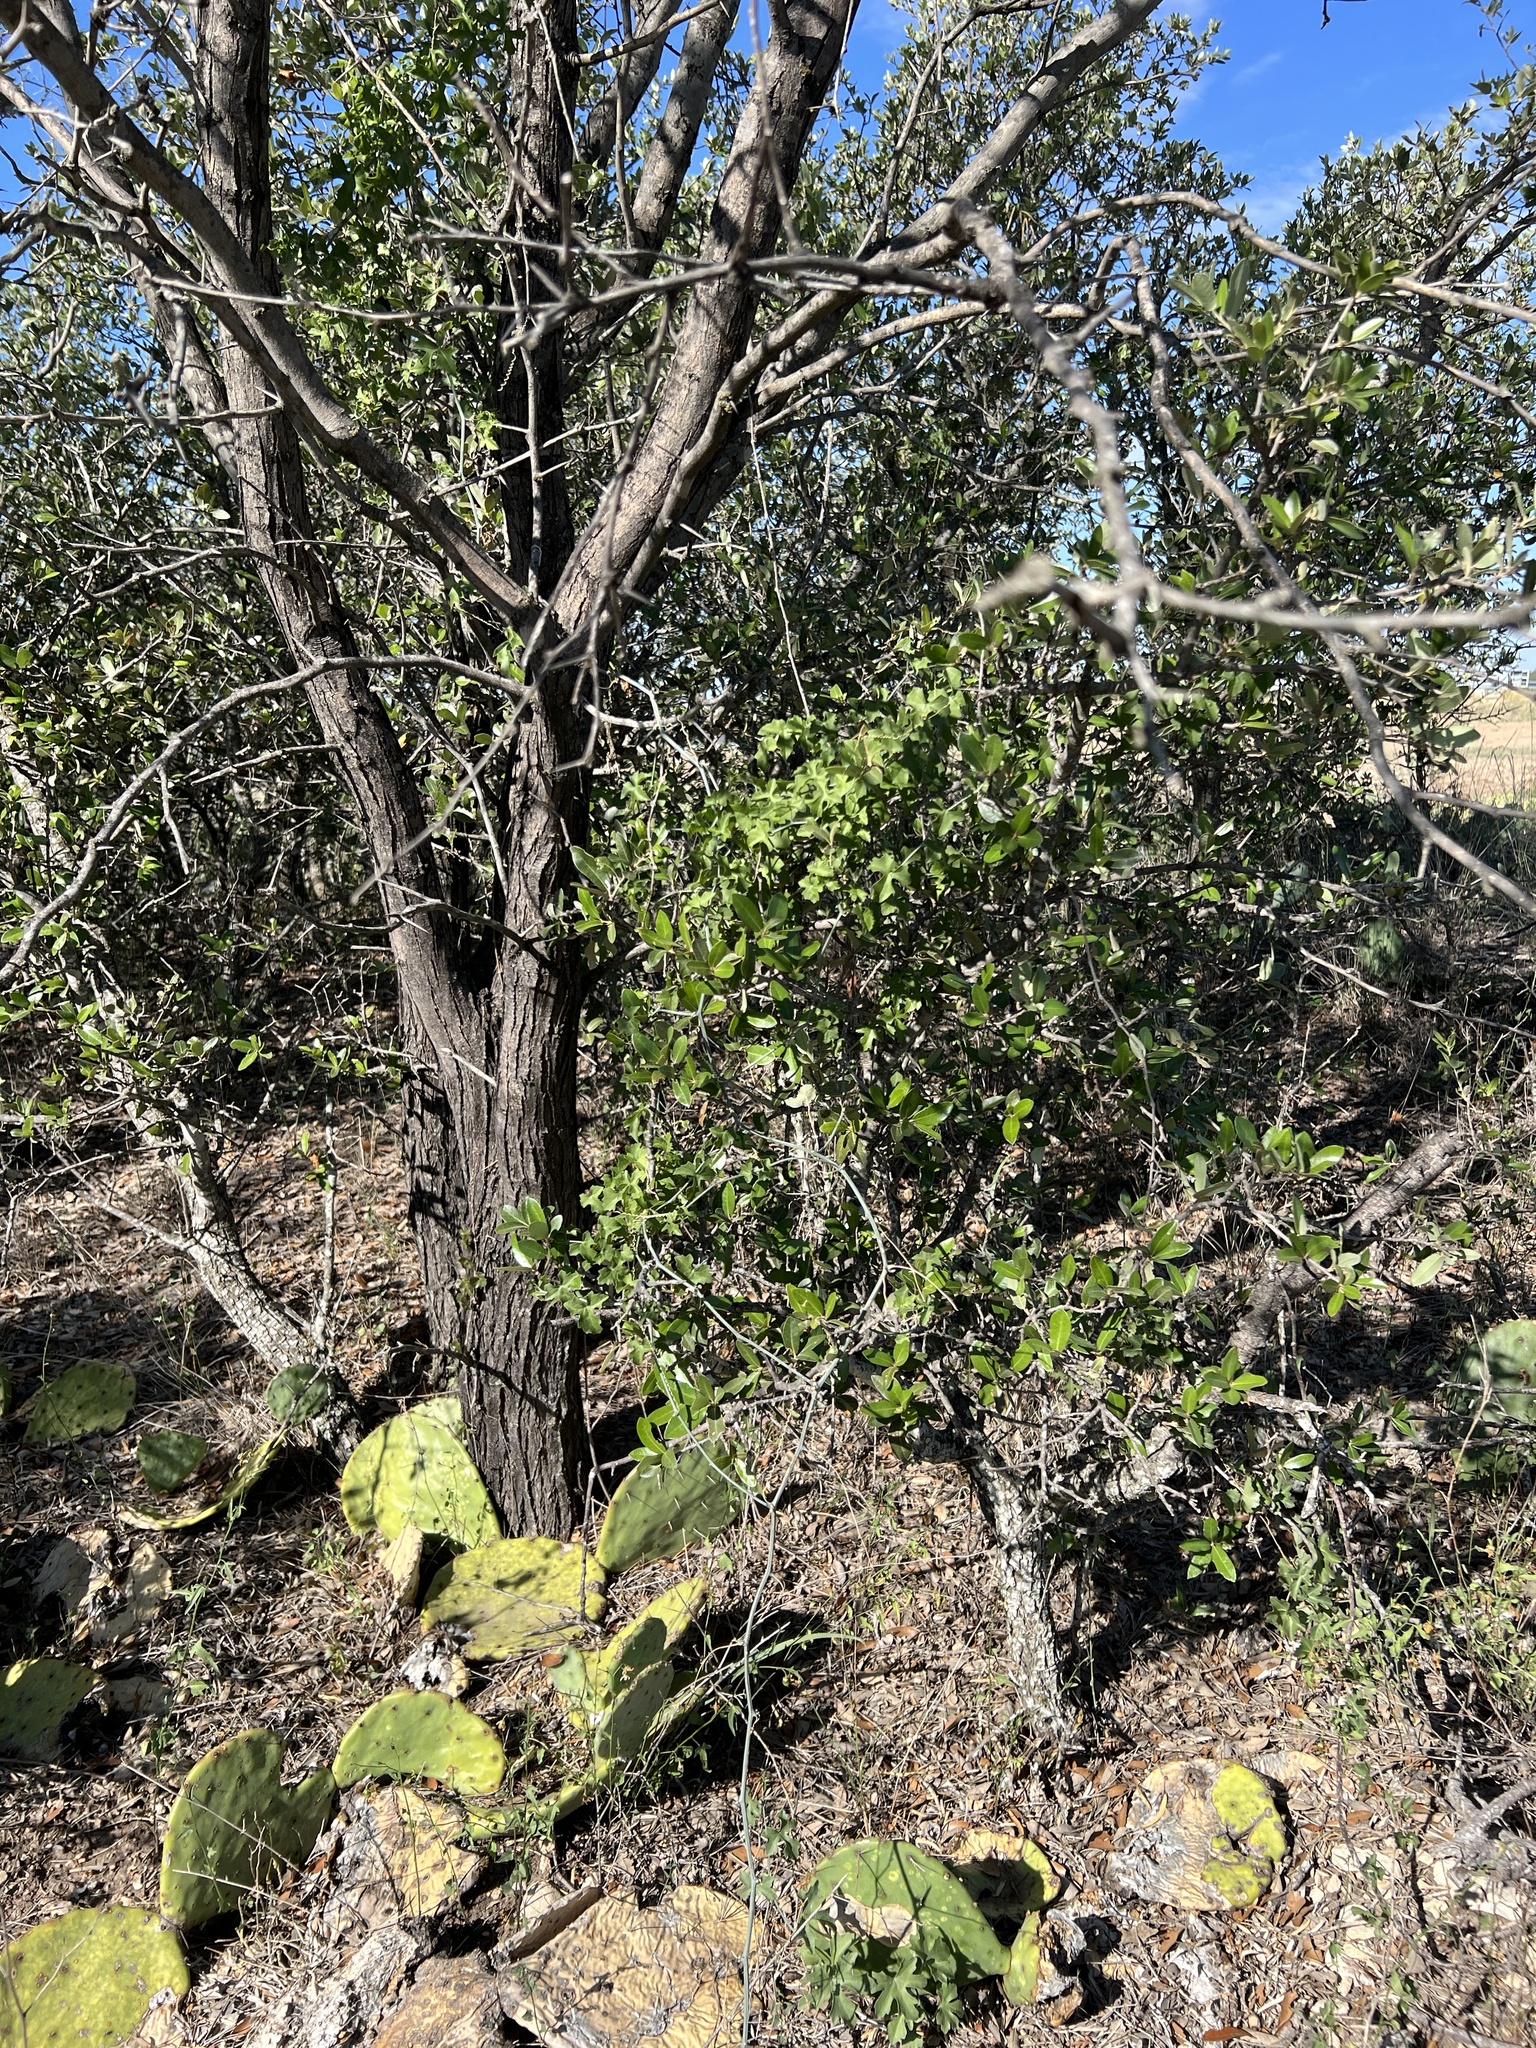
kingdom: Plantae
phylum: Tracheophyta
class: Magnoliopsida
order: Fagales
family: Fagaceae
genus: Quercus
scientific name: Quercus fusiformis
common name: Texas live oak
